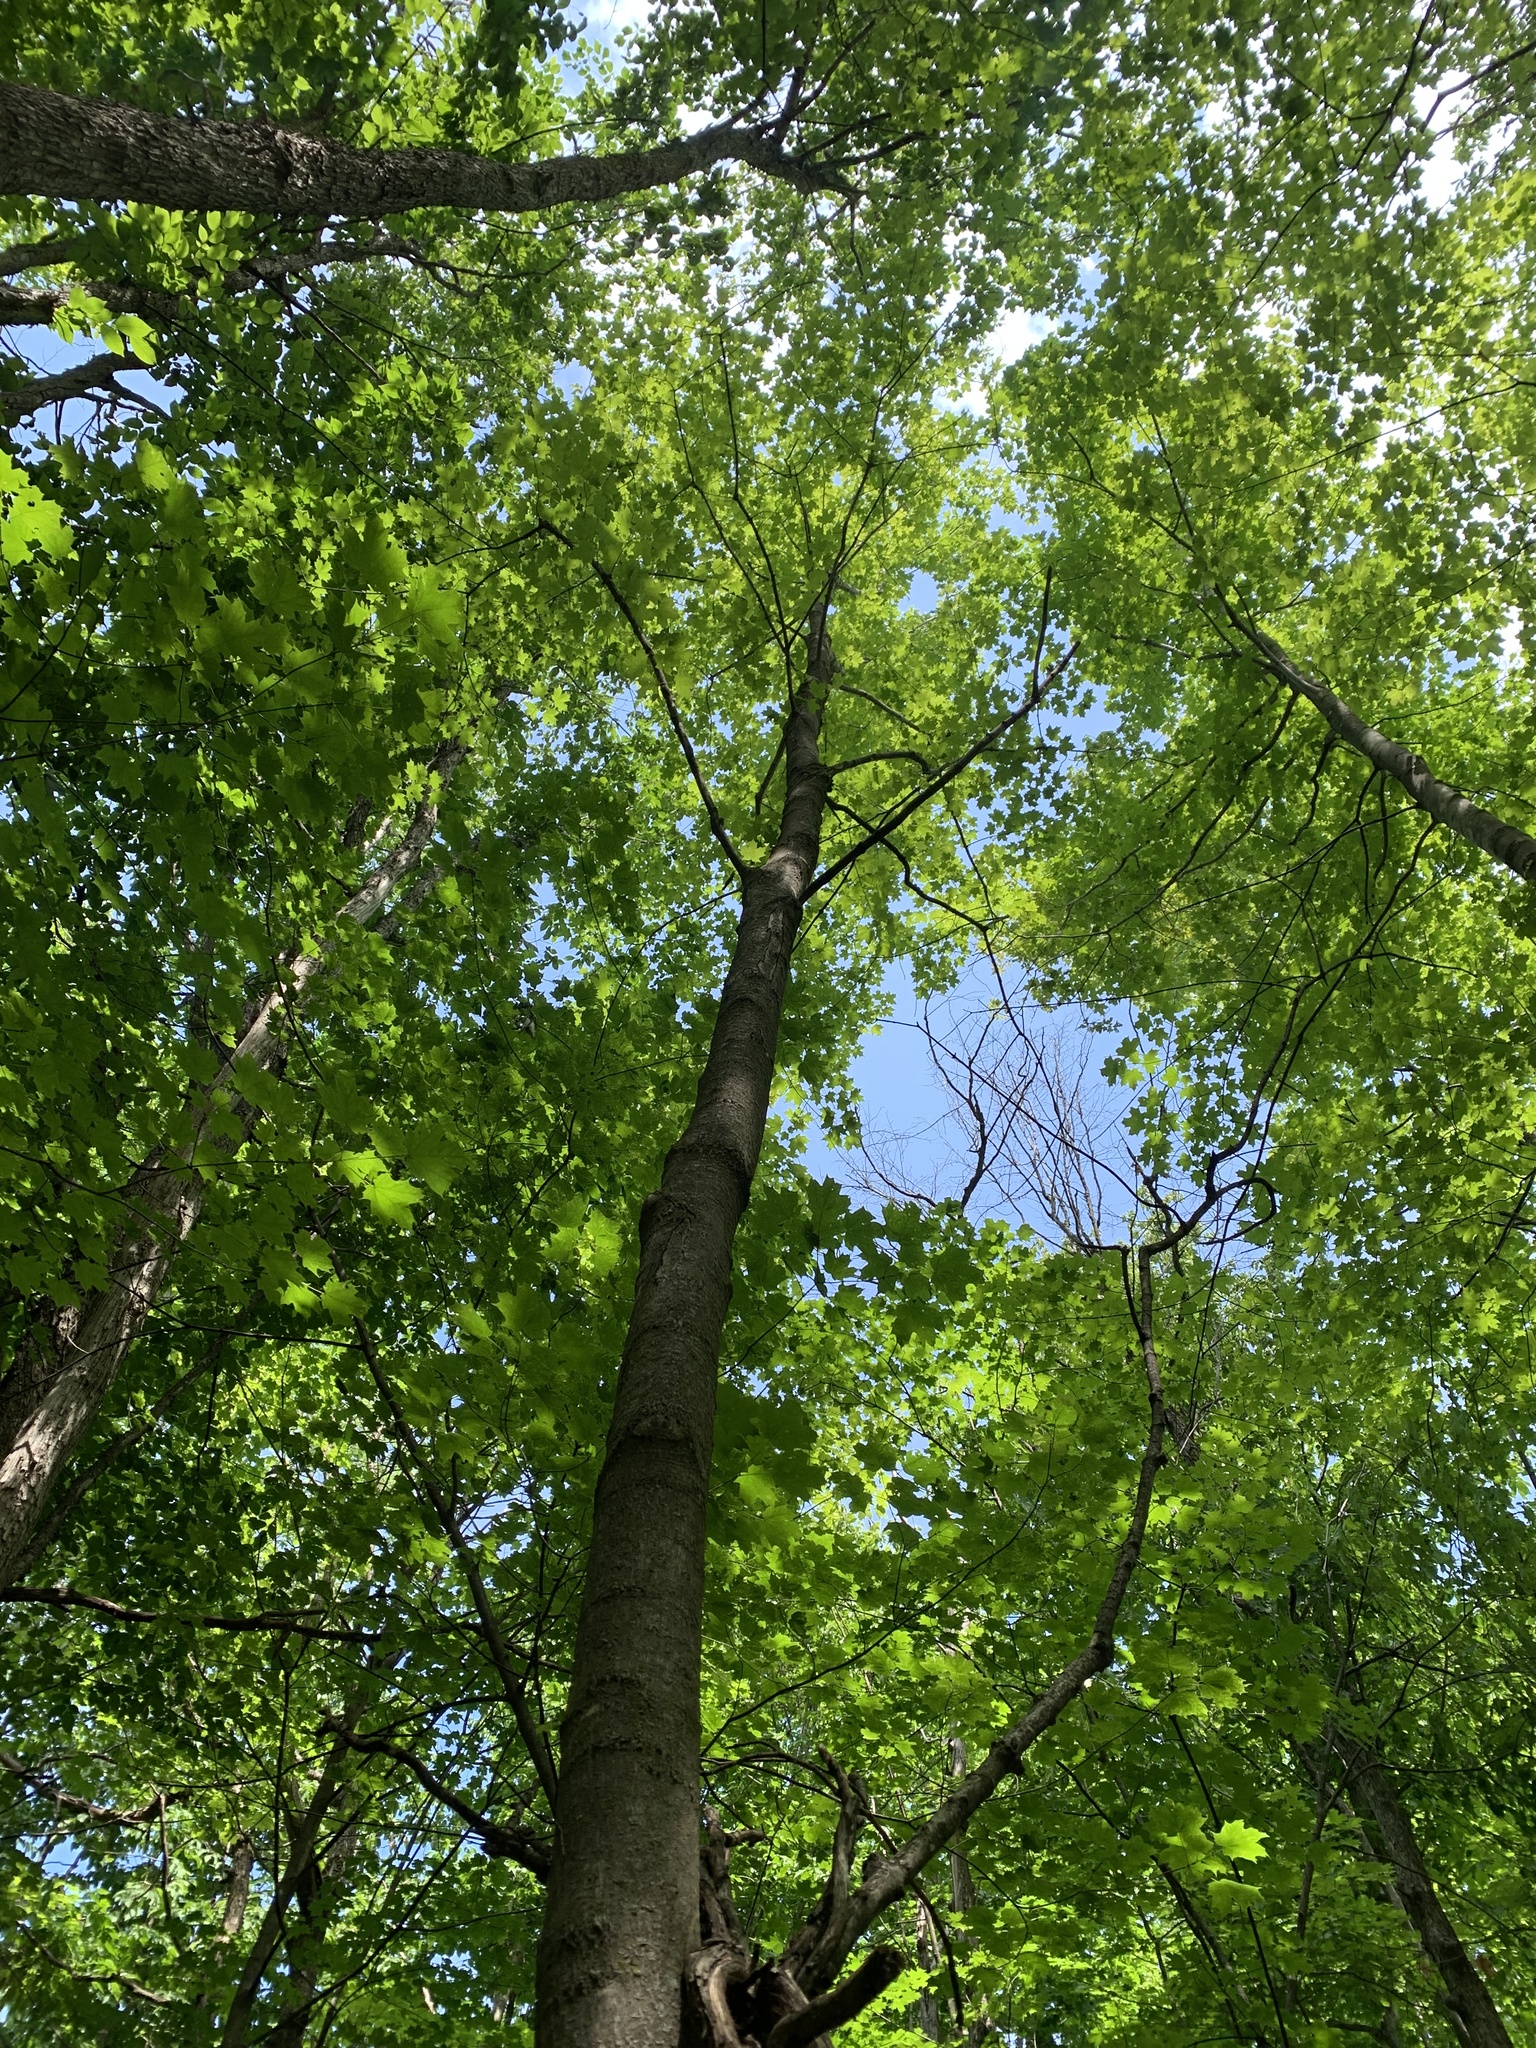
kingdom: Plantae
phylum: Tracheophyta
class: Magnoliopsida
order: Sapindales
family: Sapindaceae
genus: Acer
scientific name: Acer saccharum
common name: Sugar maple
